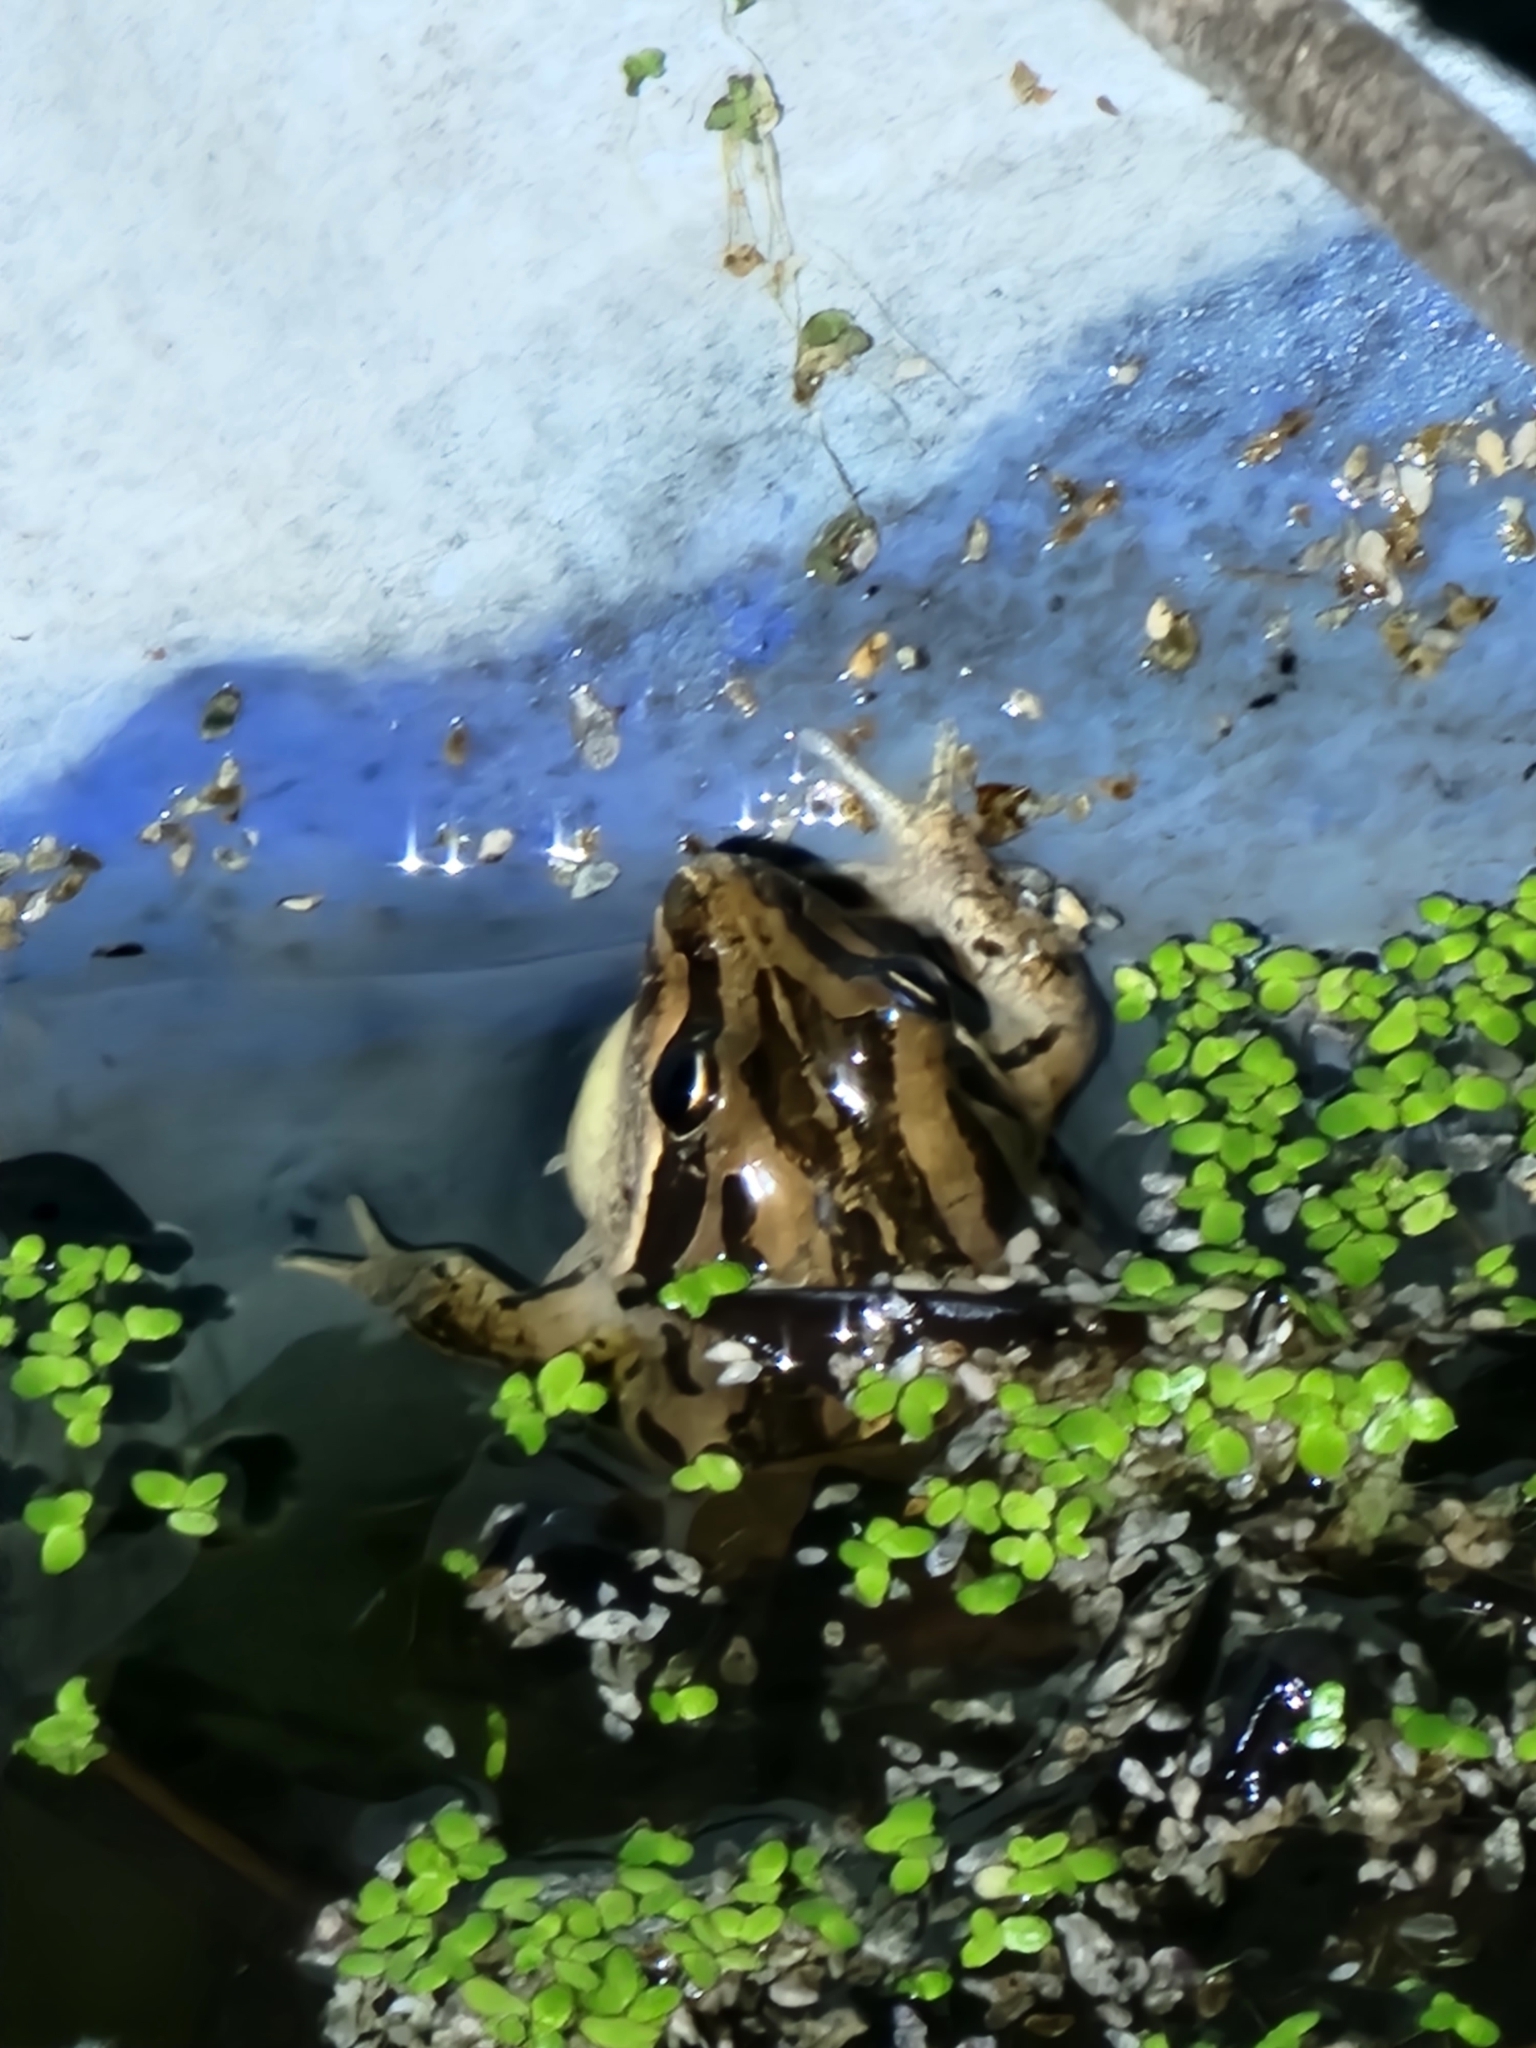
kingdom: Animalia
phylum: Chordata
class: Amphibia
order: Anura
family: Limnodynastidae
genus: Limnodynastes
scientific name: Limnodynastes peronii
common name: Brown frog
